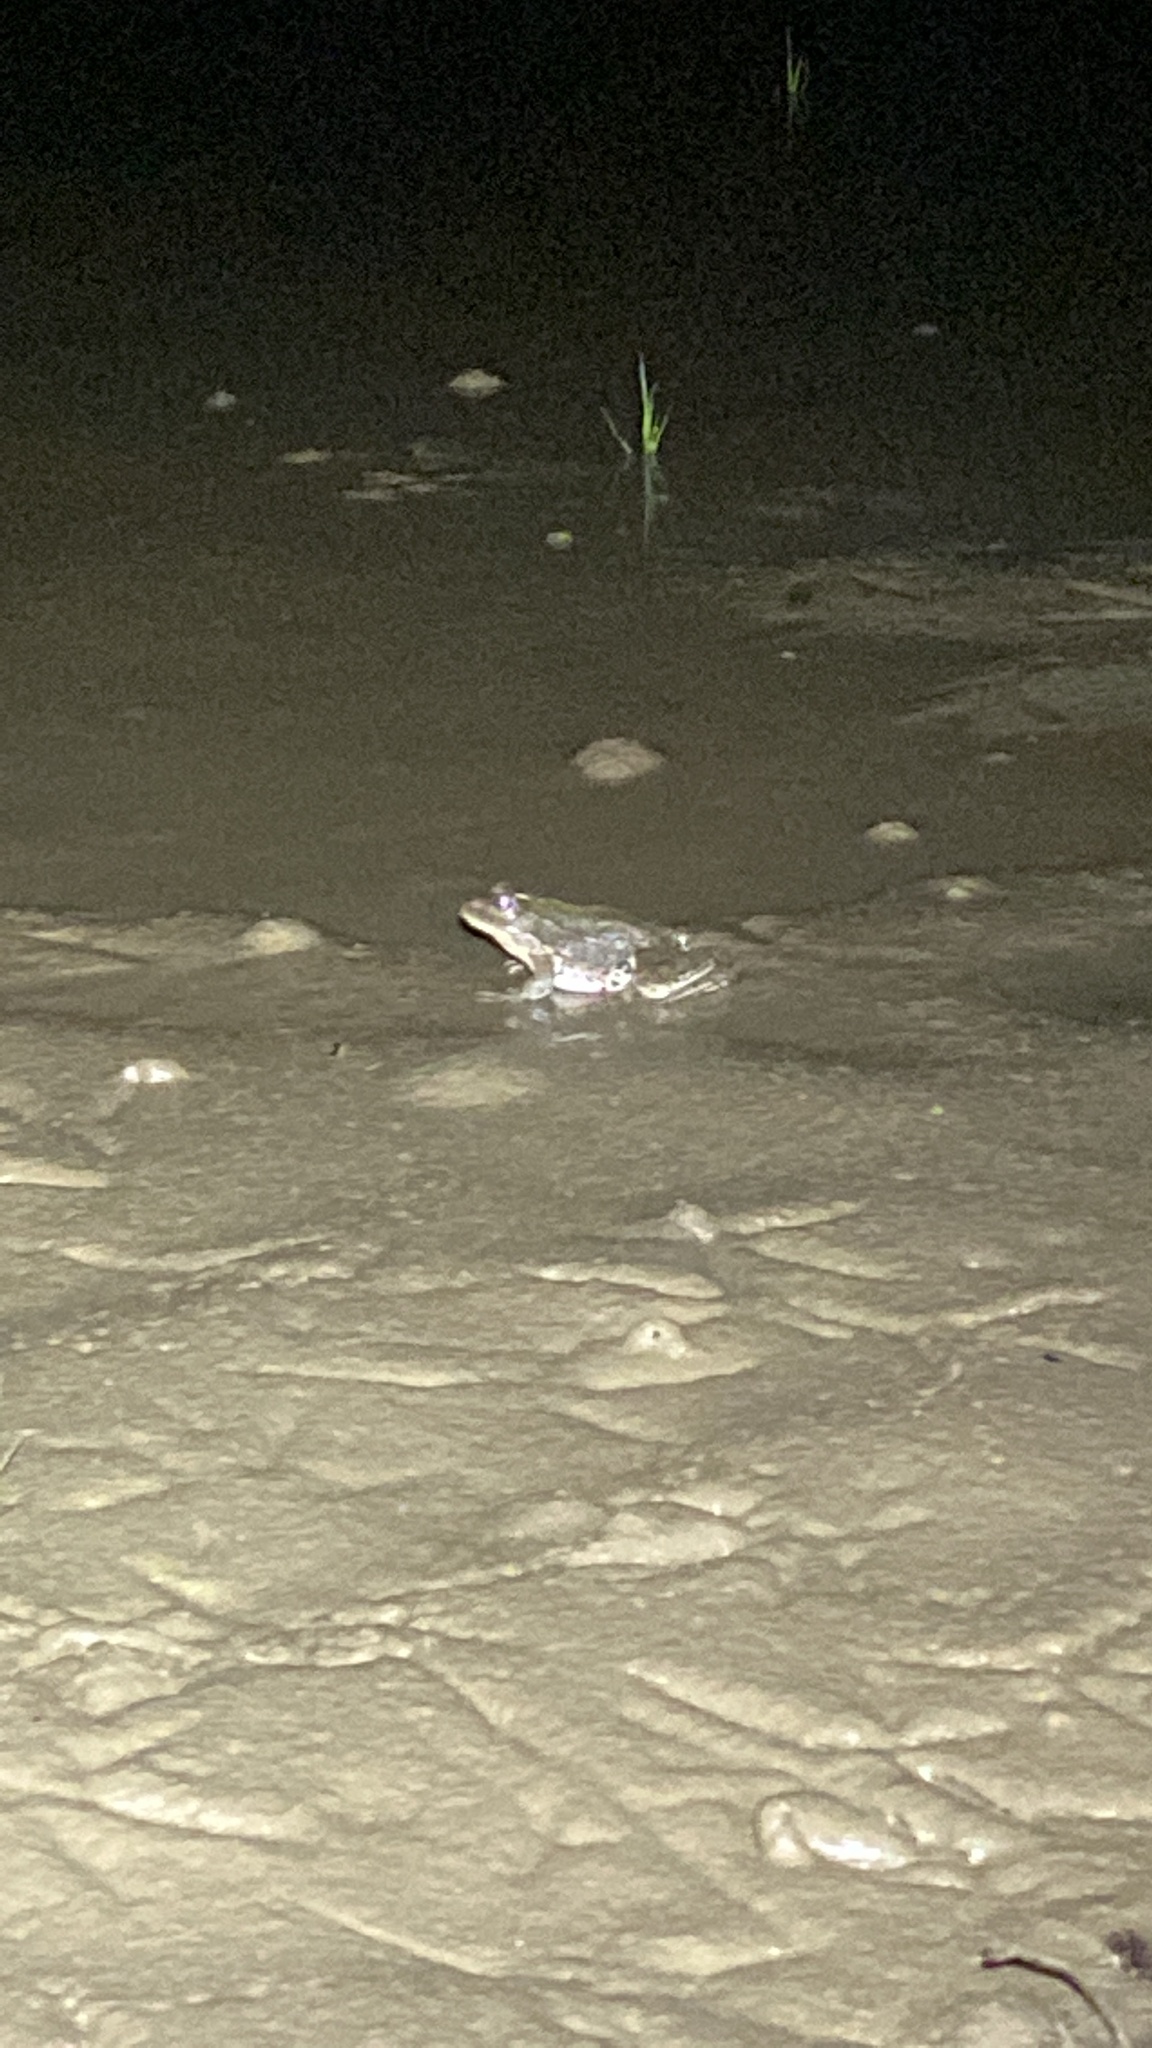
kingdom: Animalia
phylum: Chordata
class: Amphibia
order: Anura
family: Ranidae
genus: Pelophylax
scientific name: Pelophylax ridibundus
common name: Marsh frog
